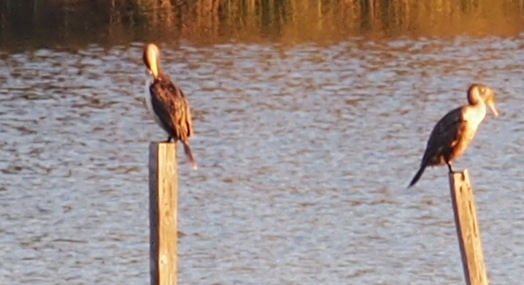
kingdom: Animalia
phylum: Chordata
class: Aves
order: Suliformes
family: Phalacrocoracidae
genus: Phalacrocorax
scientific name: Phalacrocorax auritus
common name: Double-crested cormorant
